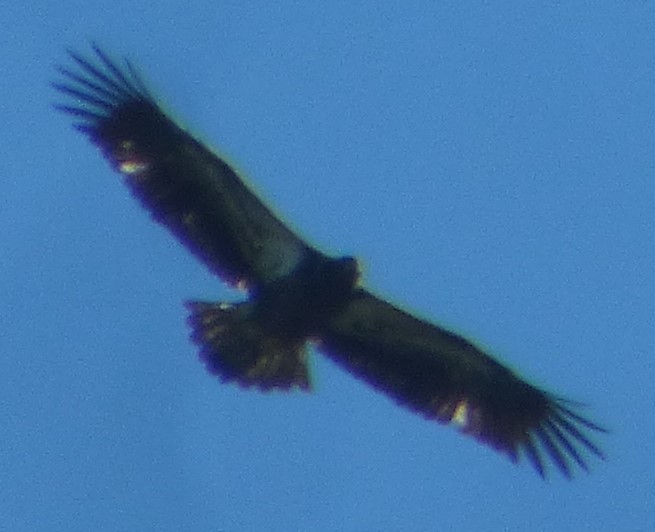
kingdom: Animalia
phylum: Chordata
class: Aves
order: Accipitriformes
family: Accipitridae
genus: Haliaeetus
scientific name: Haliaeetus leucocephalus
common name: Bald eagle
